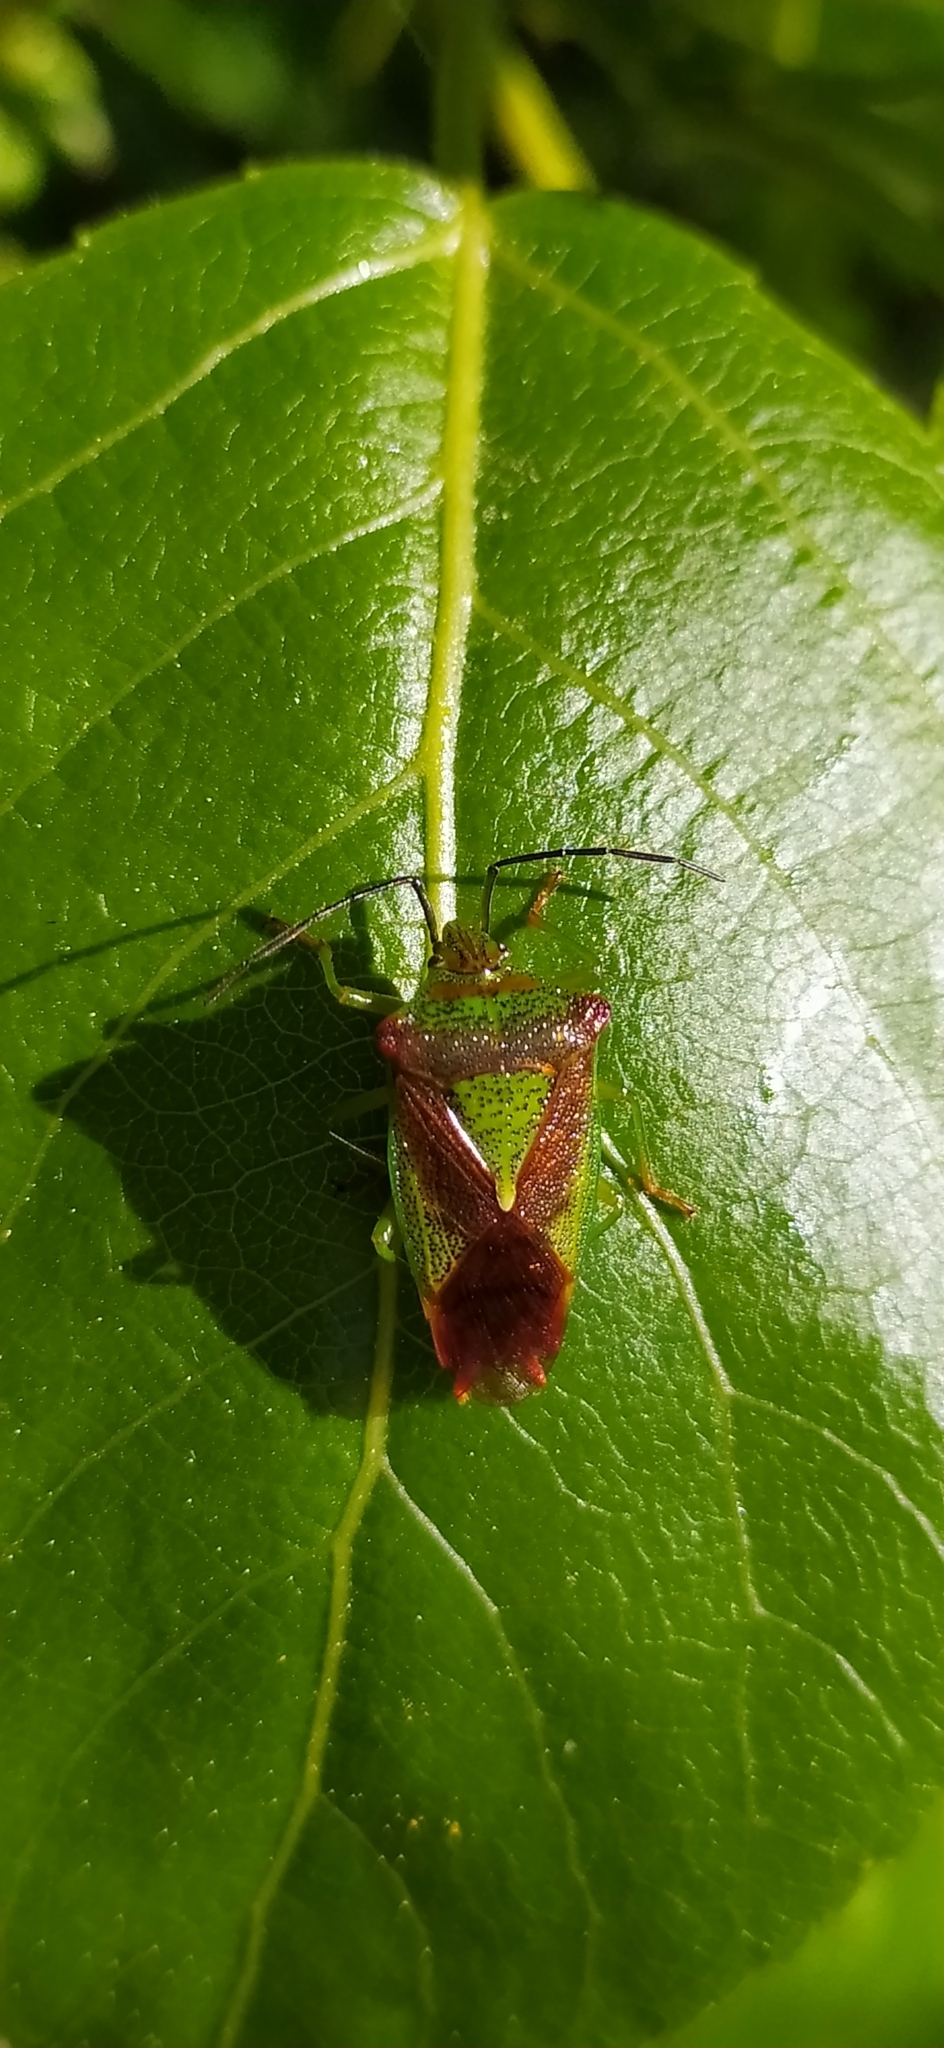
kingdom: Animalia
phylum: Arthropoda
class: Insecta
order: Hemiptera
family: Acanthosomatidae
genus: Acanthosoma
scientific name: Acanthosoma haemorrhoidale
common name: Hawthorn shieldbug
